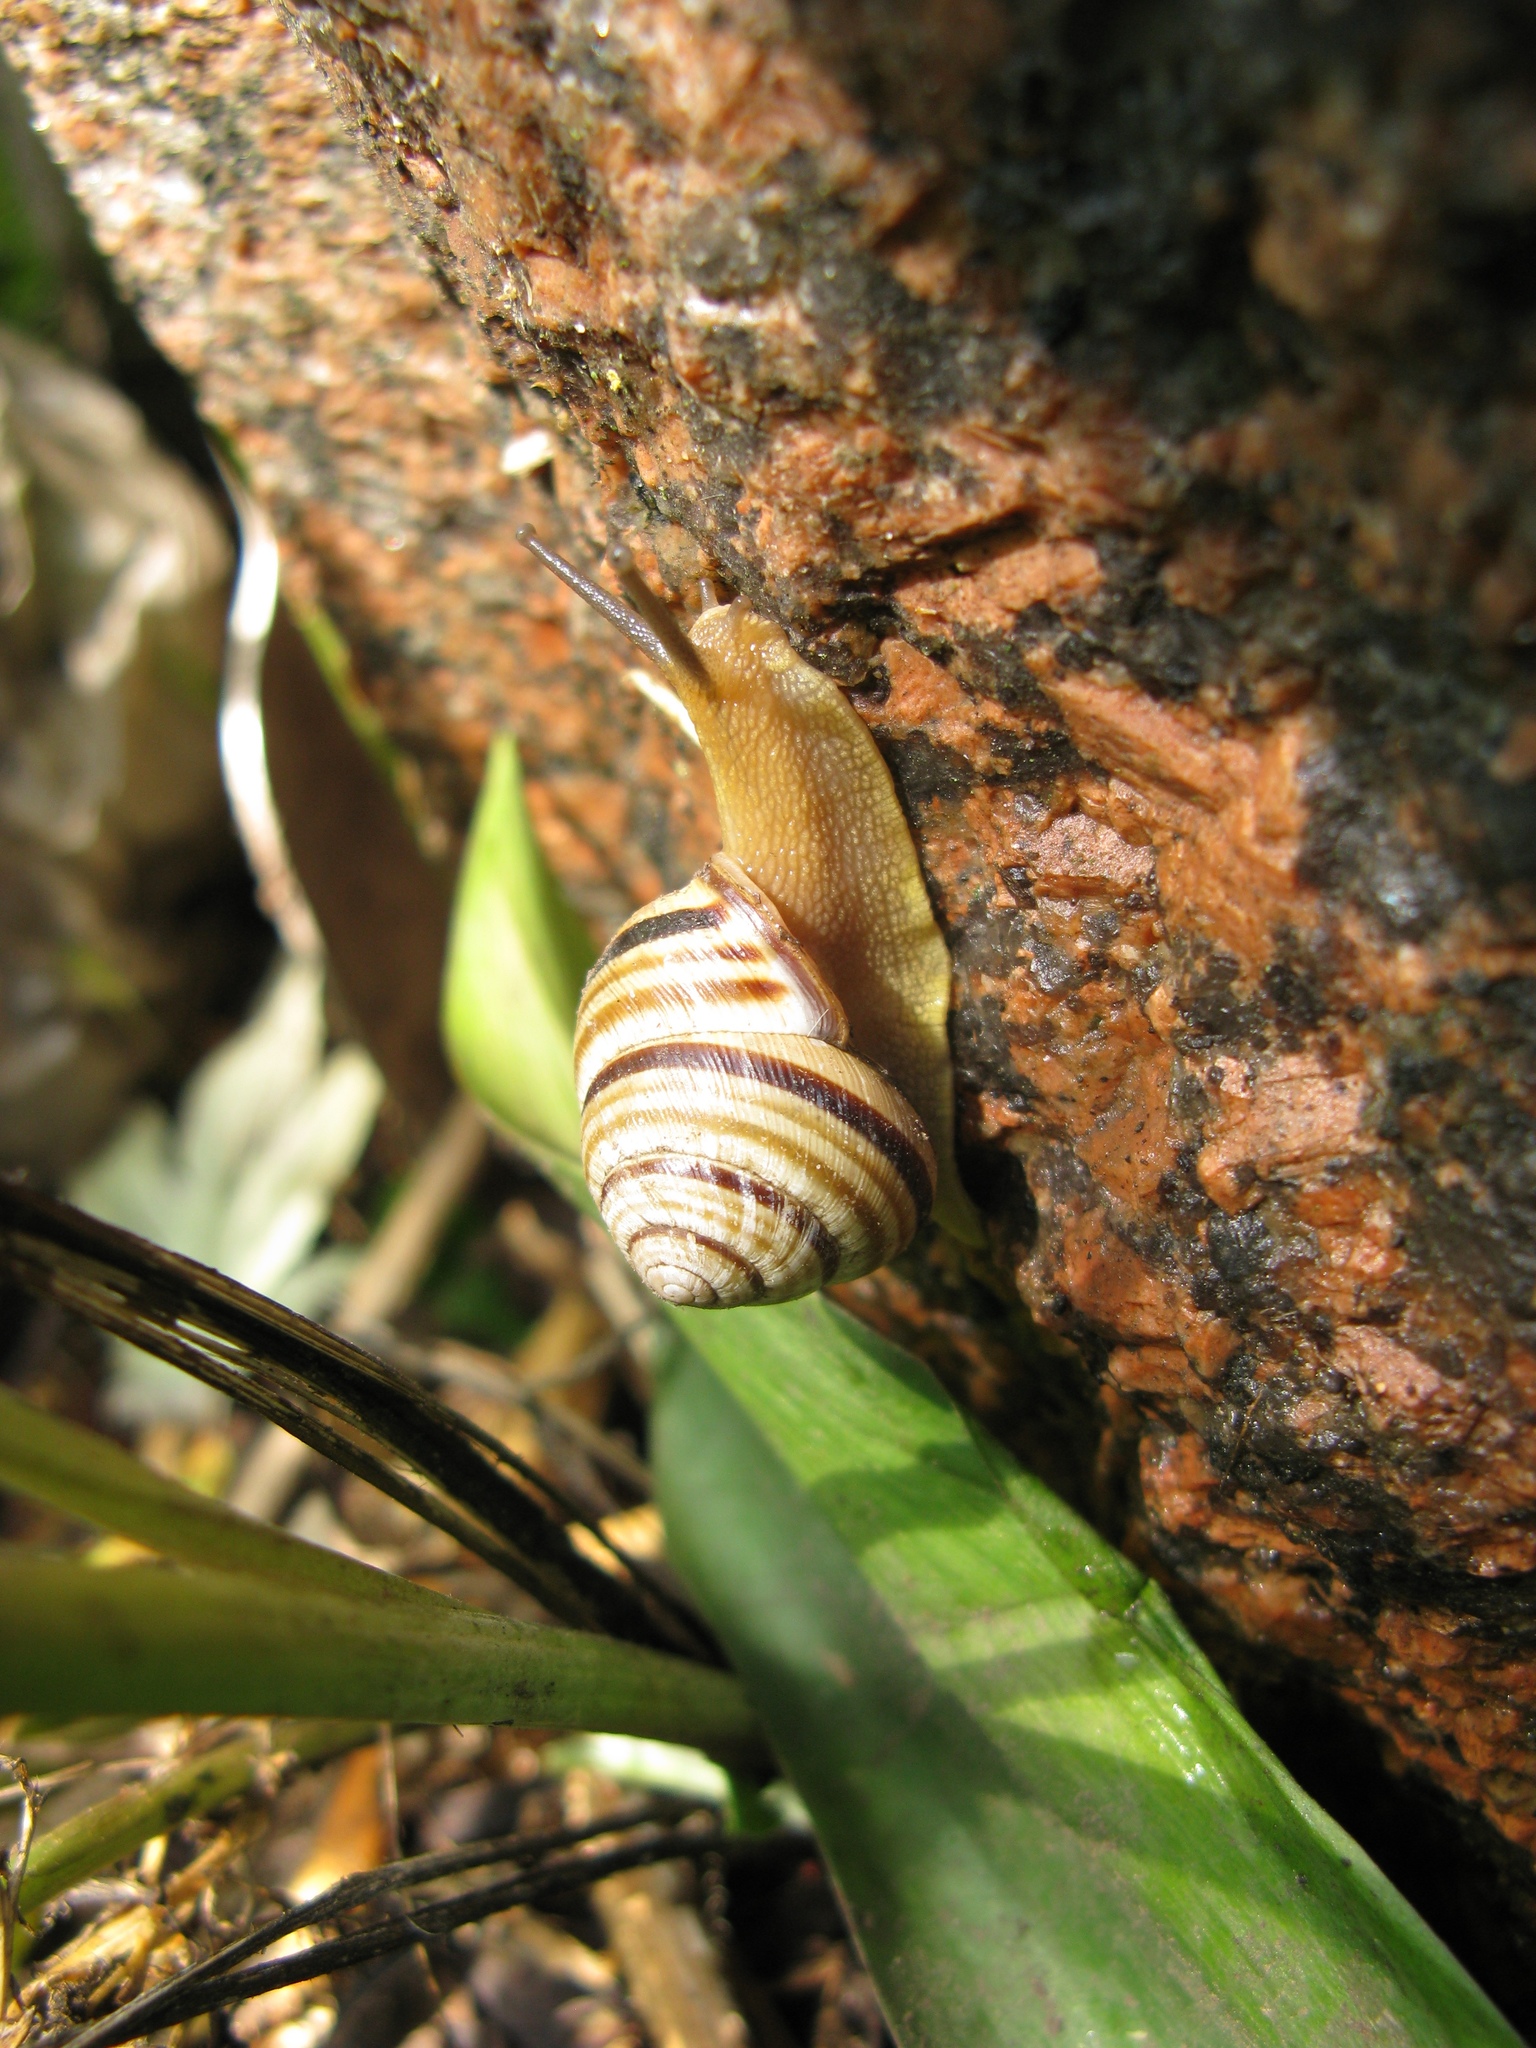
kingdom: Animalia
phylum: Mollusca
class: Gastropoda
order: Stylommatophora
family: Helicidae
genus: Caucasotachea
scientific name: Caucasotachea vindobonensis
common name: European helicid land snail
